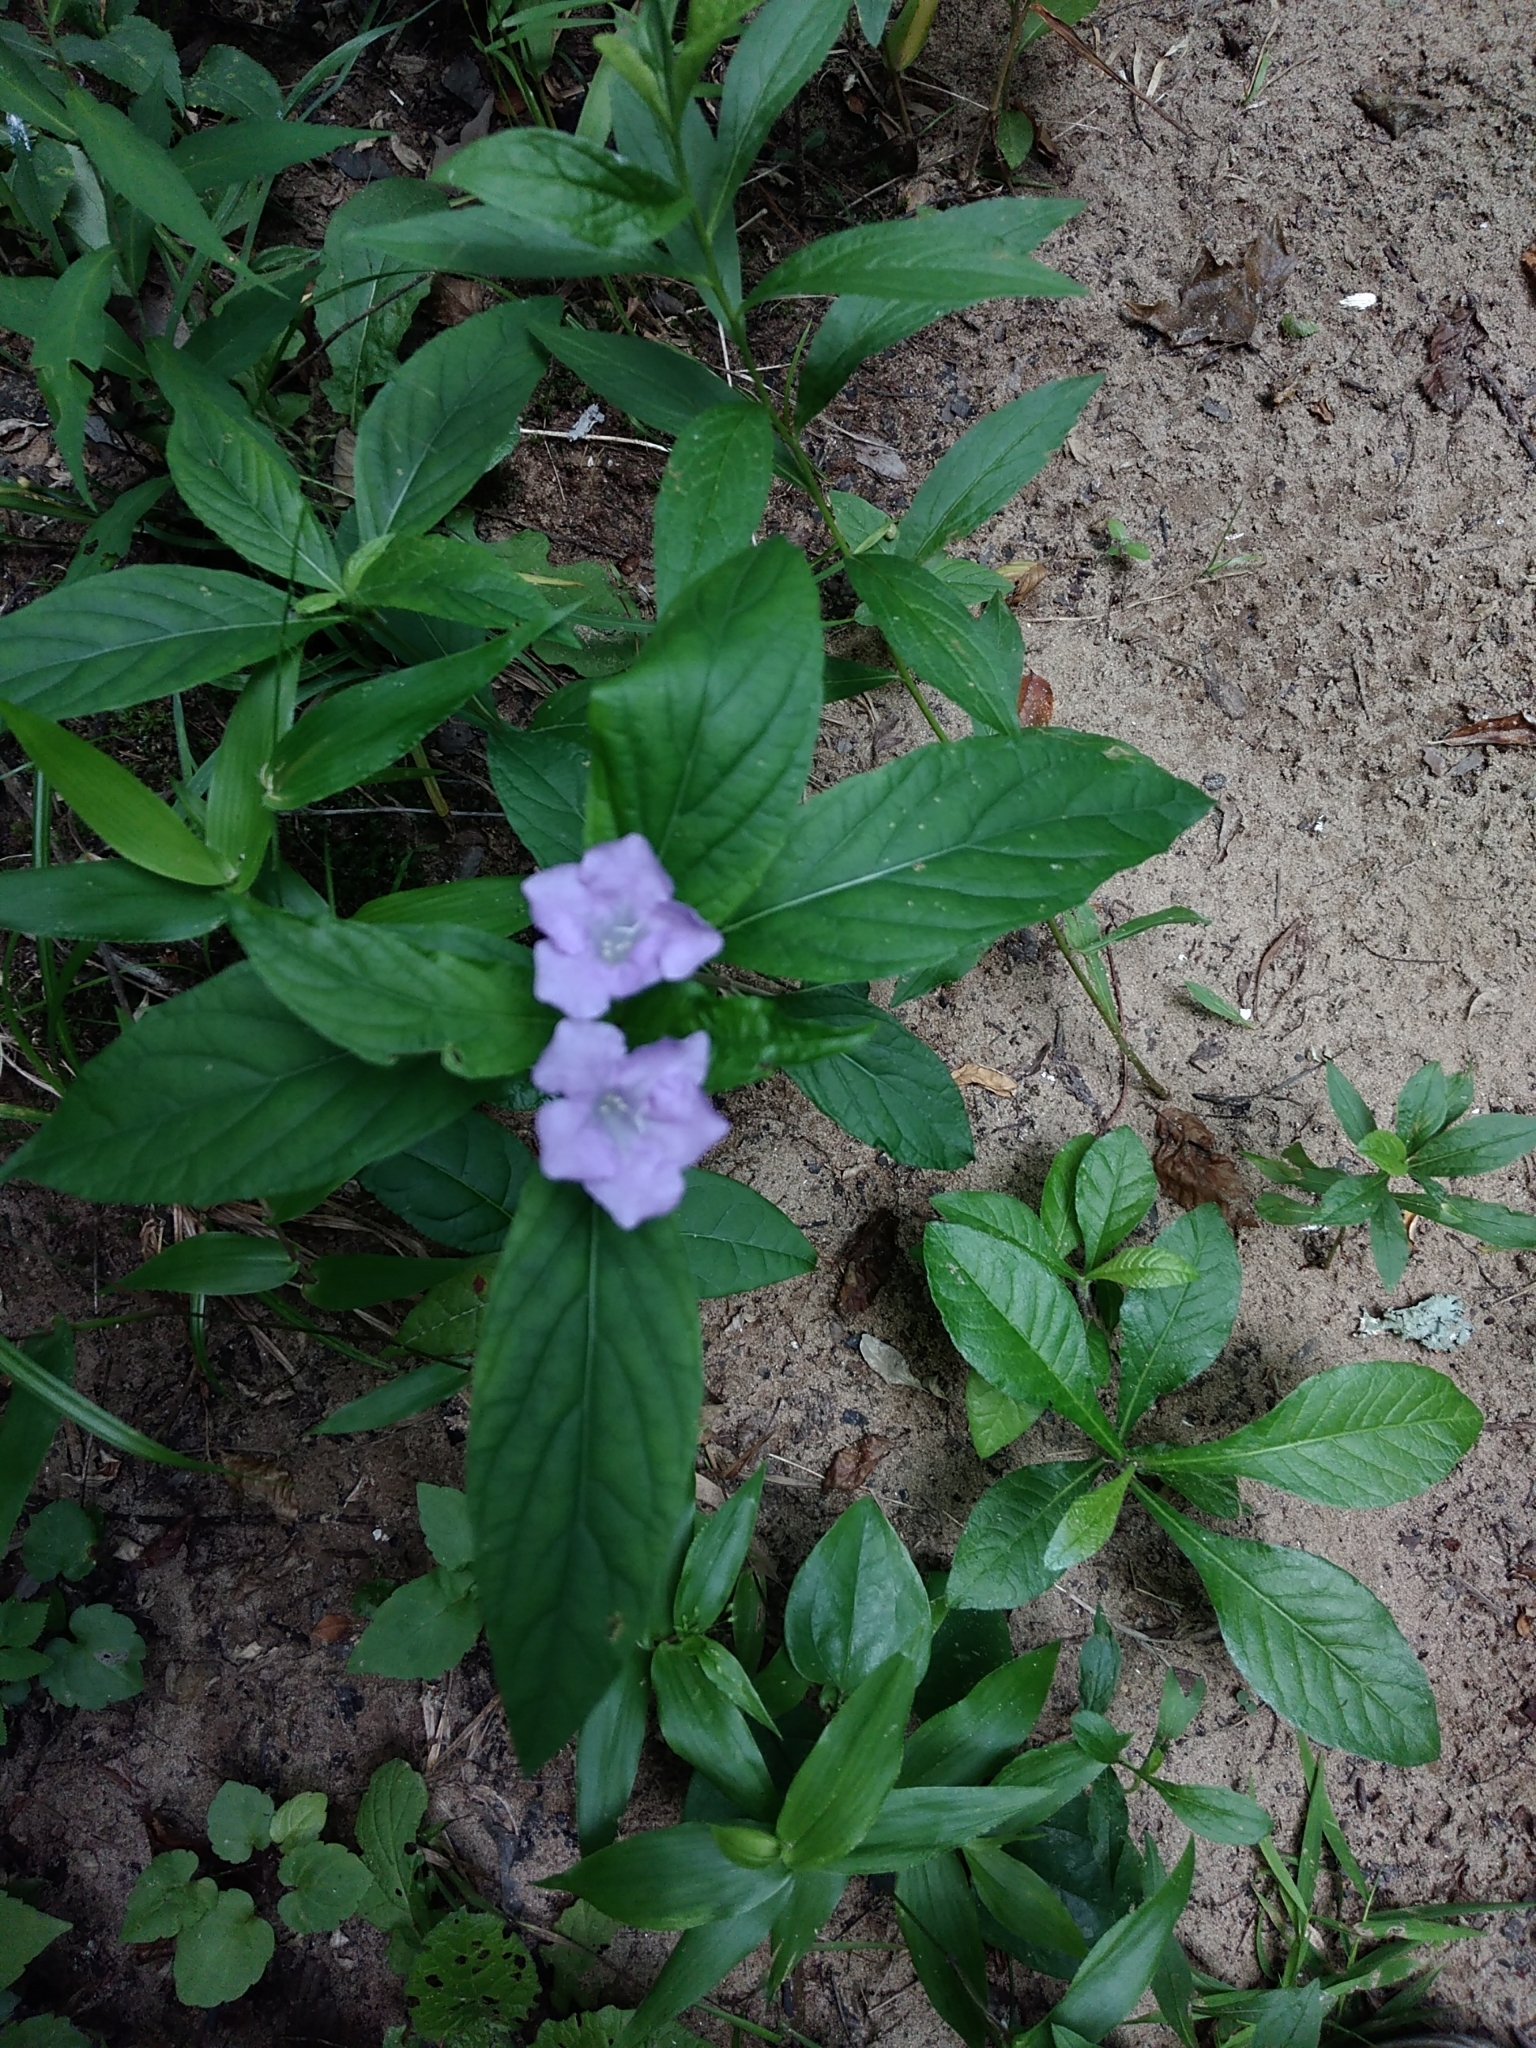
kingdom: Plantae
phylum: Tracheophyta
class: Magnoliopsida
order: Lamiales
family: Acanthaceae
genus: Ruellia
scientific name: Ruellia caroliniensis
